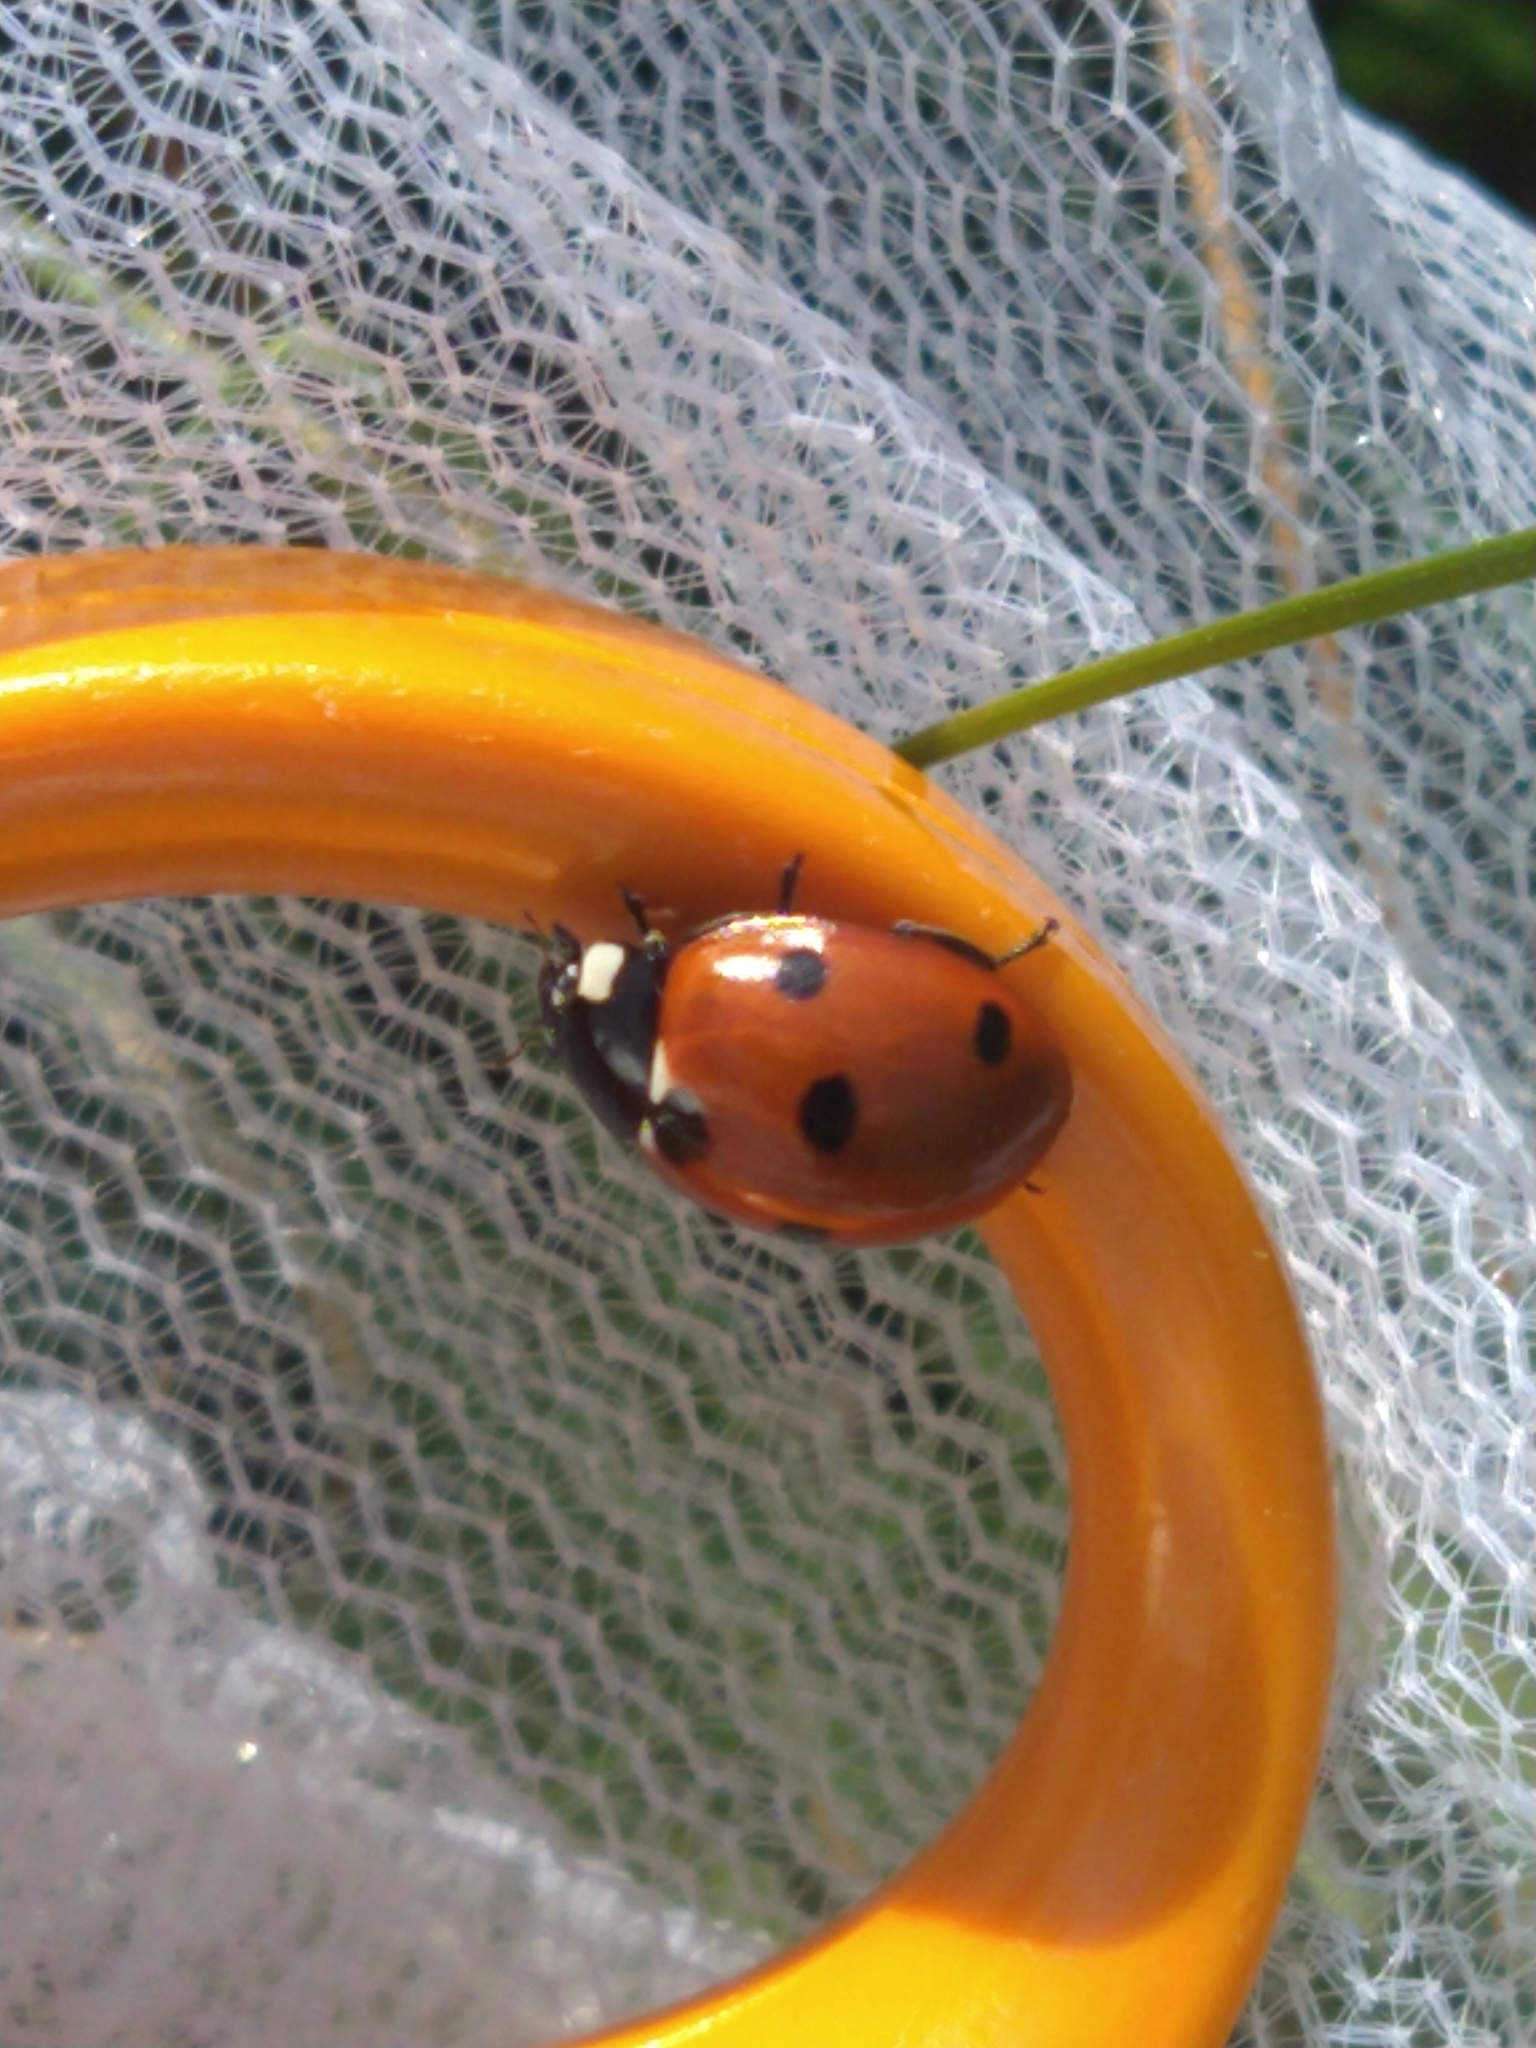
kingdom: Animalia
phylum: Arthropoda
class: Insecta
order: Coleoptera
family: Coccinellidae
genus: Coccinella
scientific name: Coccinella septempunctata
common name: Sevenspotted lady beetle
